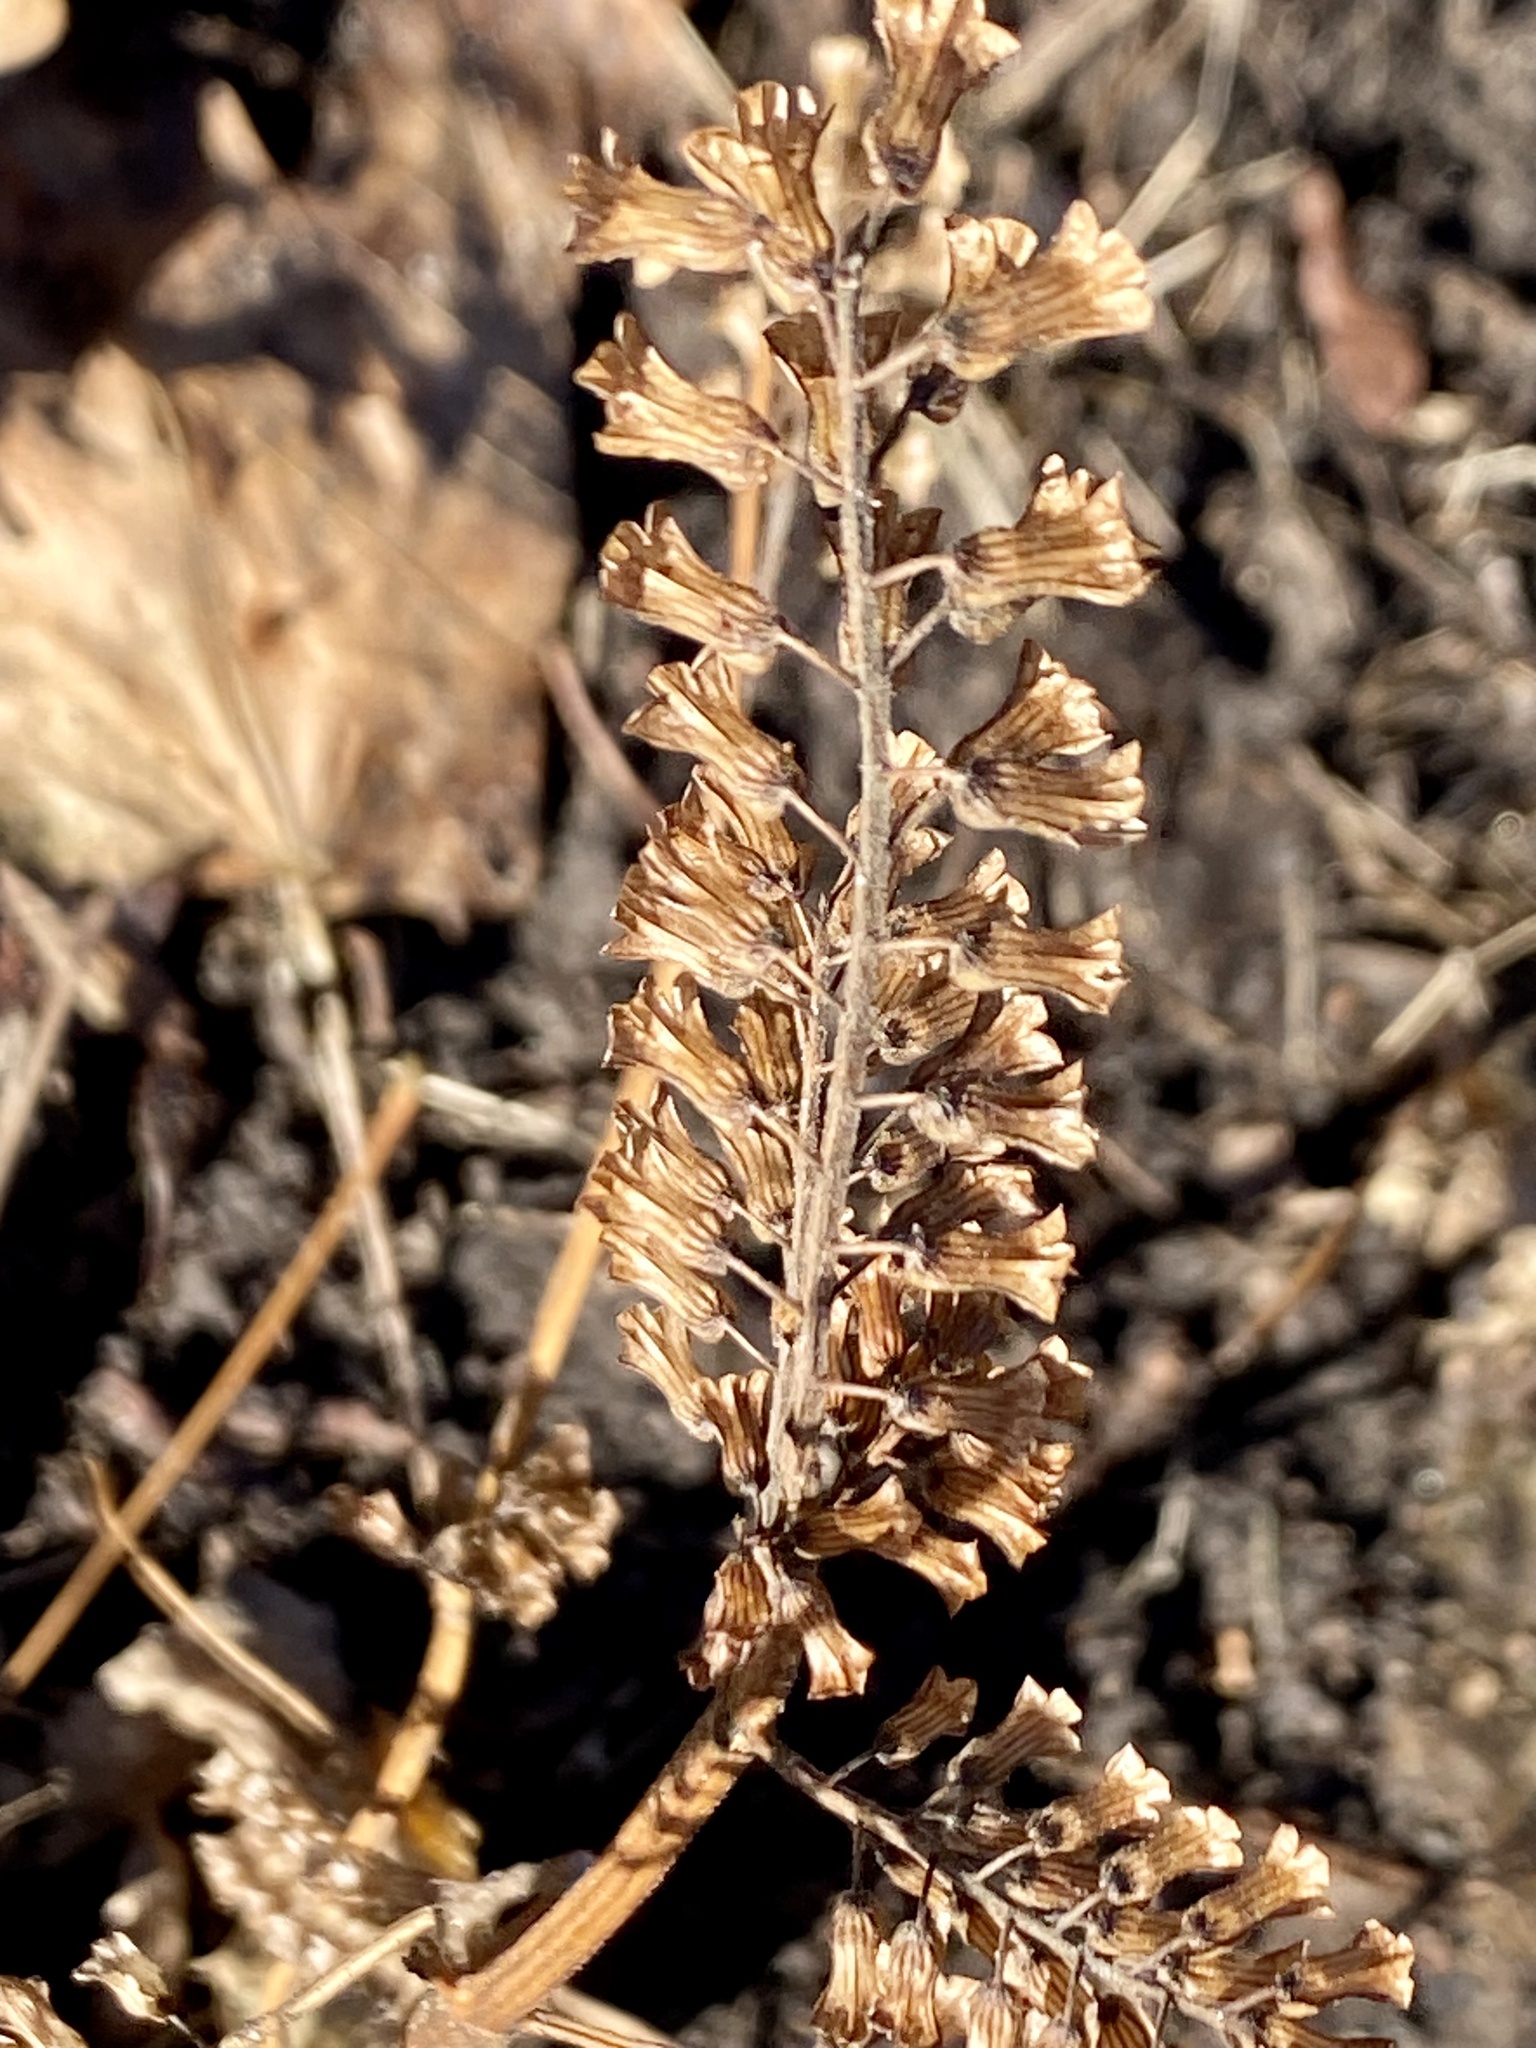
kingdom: Plantae
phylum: Tracheophyta
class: Magnoliopsida
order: Lamiales
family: Lamiaceae
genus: Perilla
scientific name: Perilla frutescens
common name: Perilla
